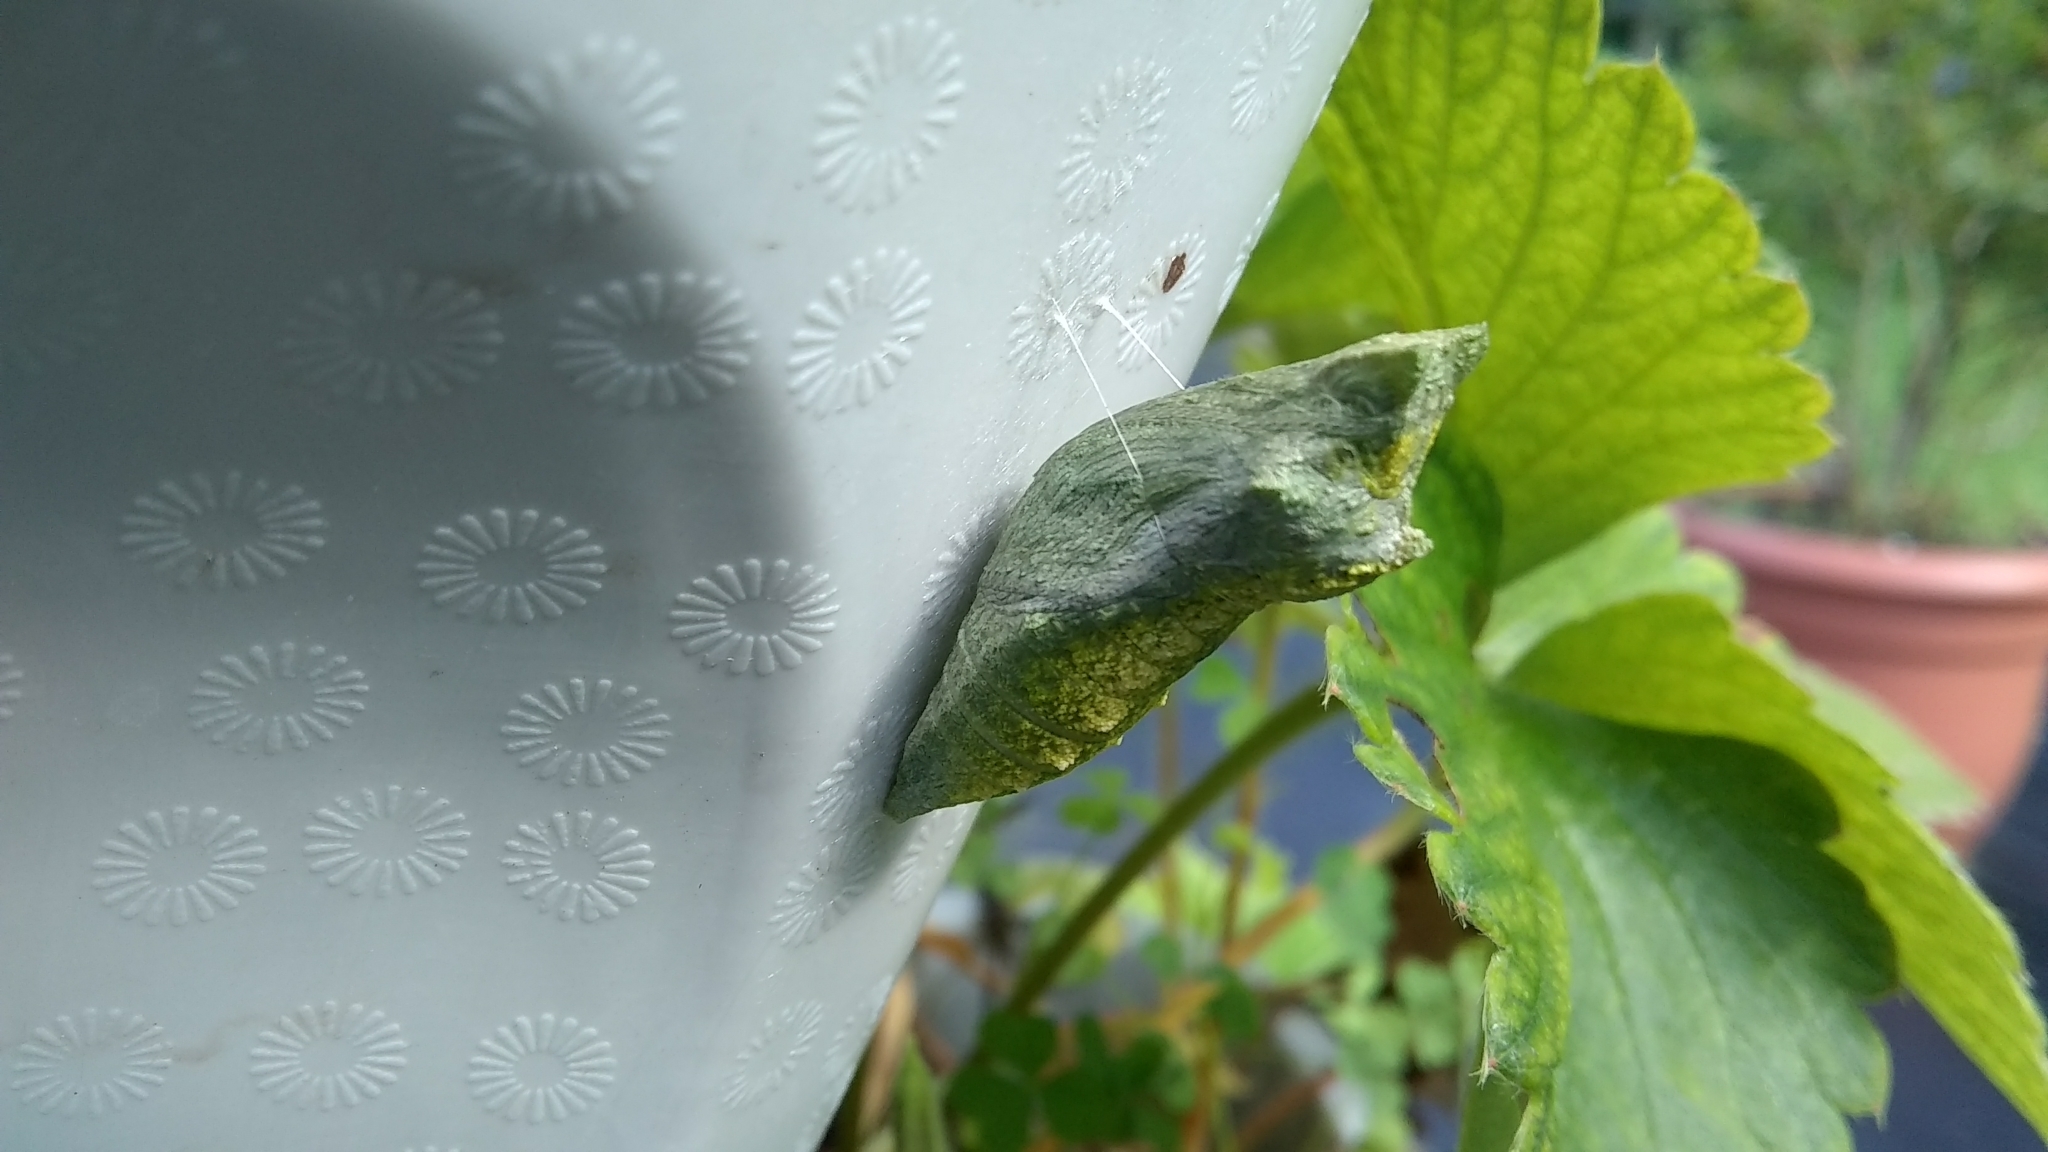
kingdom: Animalia
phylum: Arthropoda
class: Insecta
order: Lepidoptera
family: Papilionidae
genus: Papilio
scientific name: Papilio polyxenes
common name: Black swallowtail
